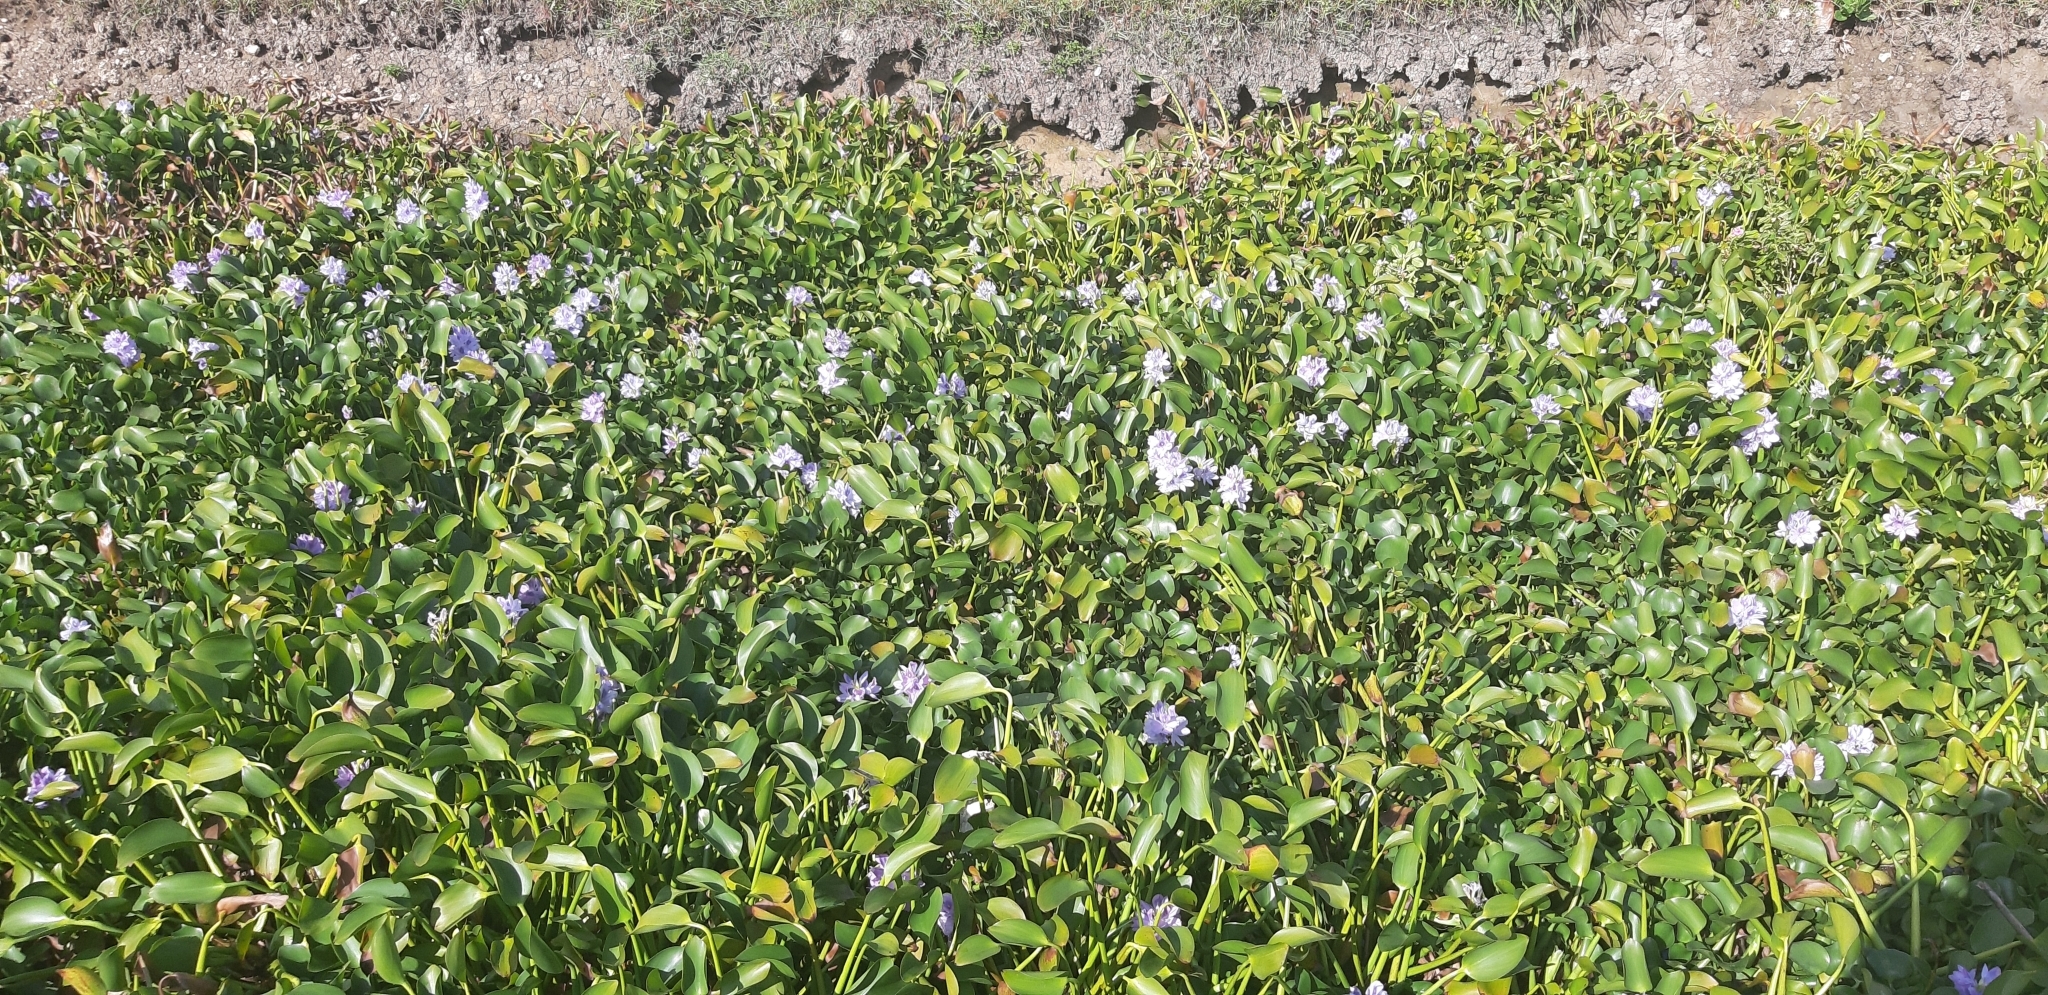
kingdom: Plantae
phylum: Tracheophyta
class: Liliopsida
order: Commelinales
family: Pontederiaceae
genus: Pontederia
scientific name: Pontederia crassipes
